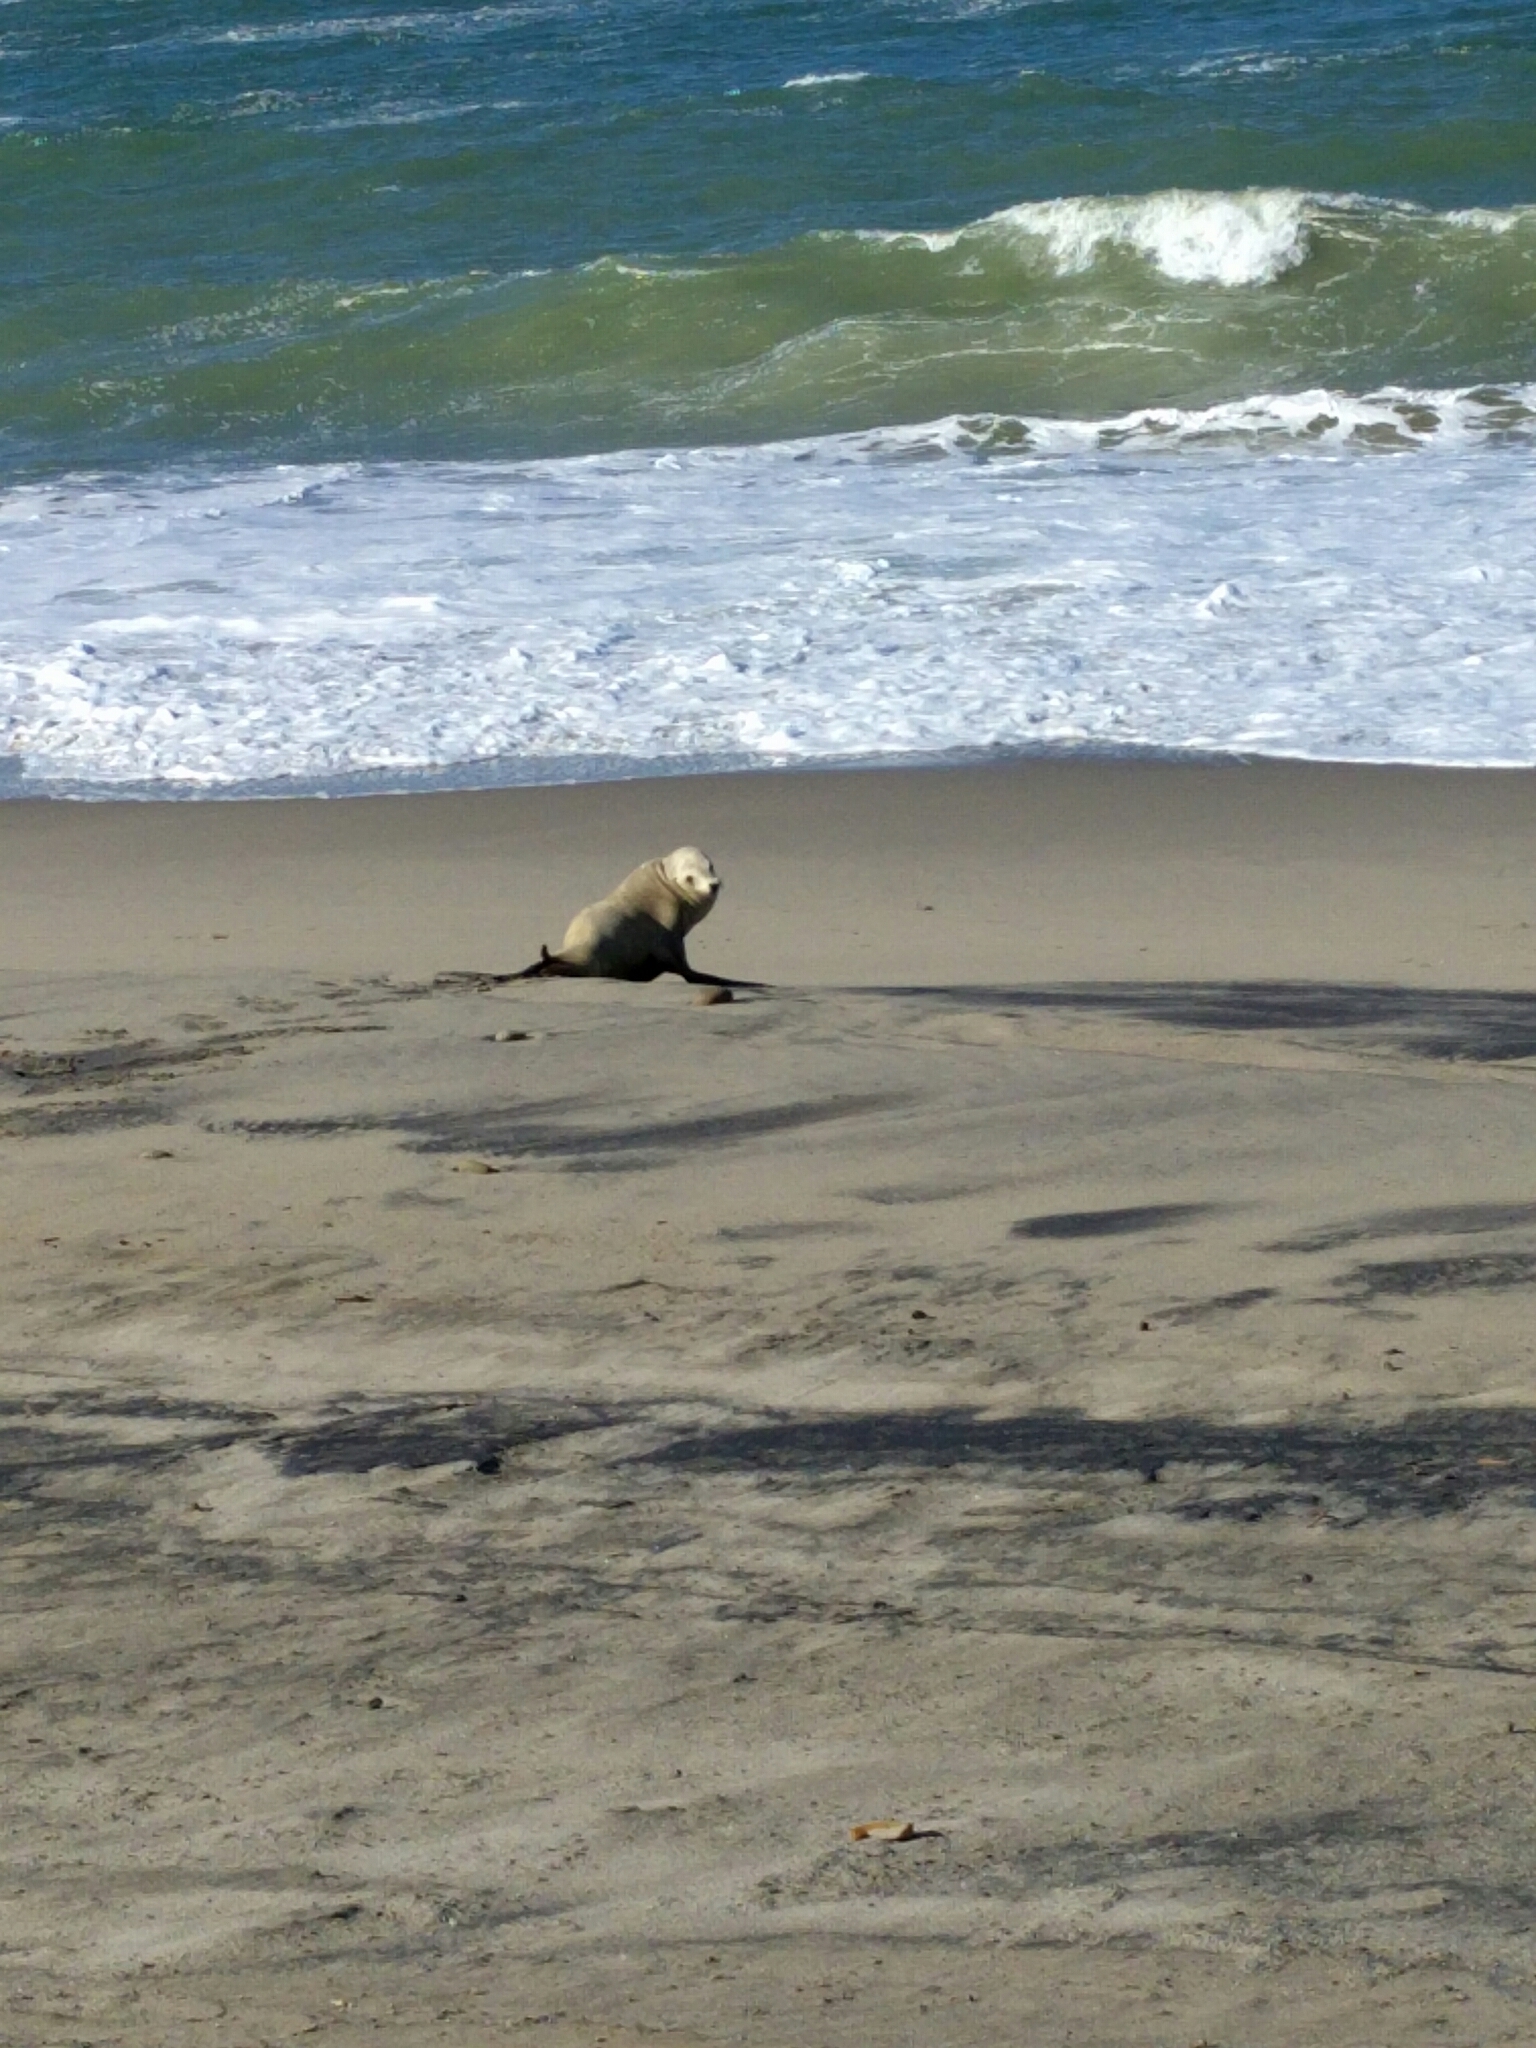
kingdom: Animalia
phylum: Chordata
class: Mammalia
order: Carnivora
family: Otariidae
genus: Zalophus
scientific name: Zalophus californianus
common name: California sea lion
